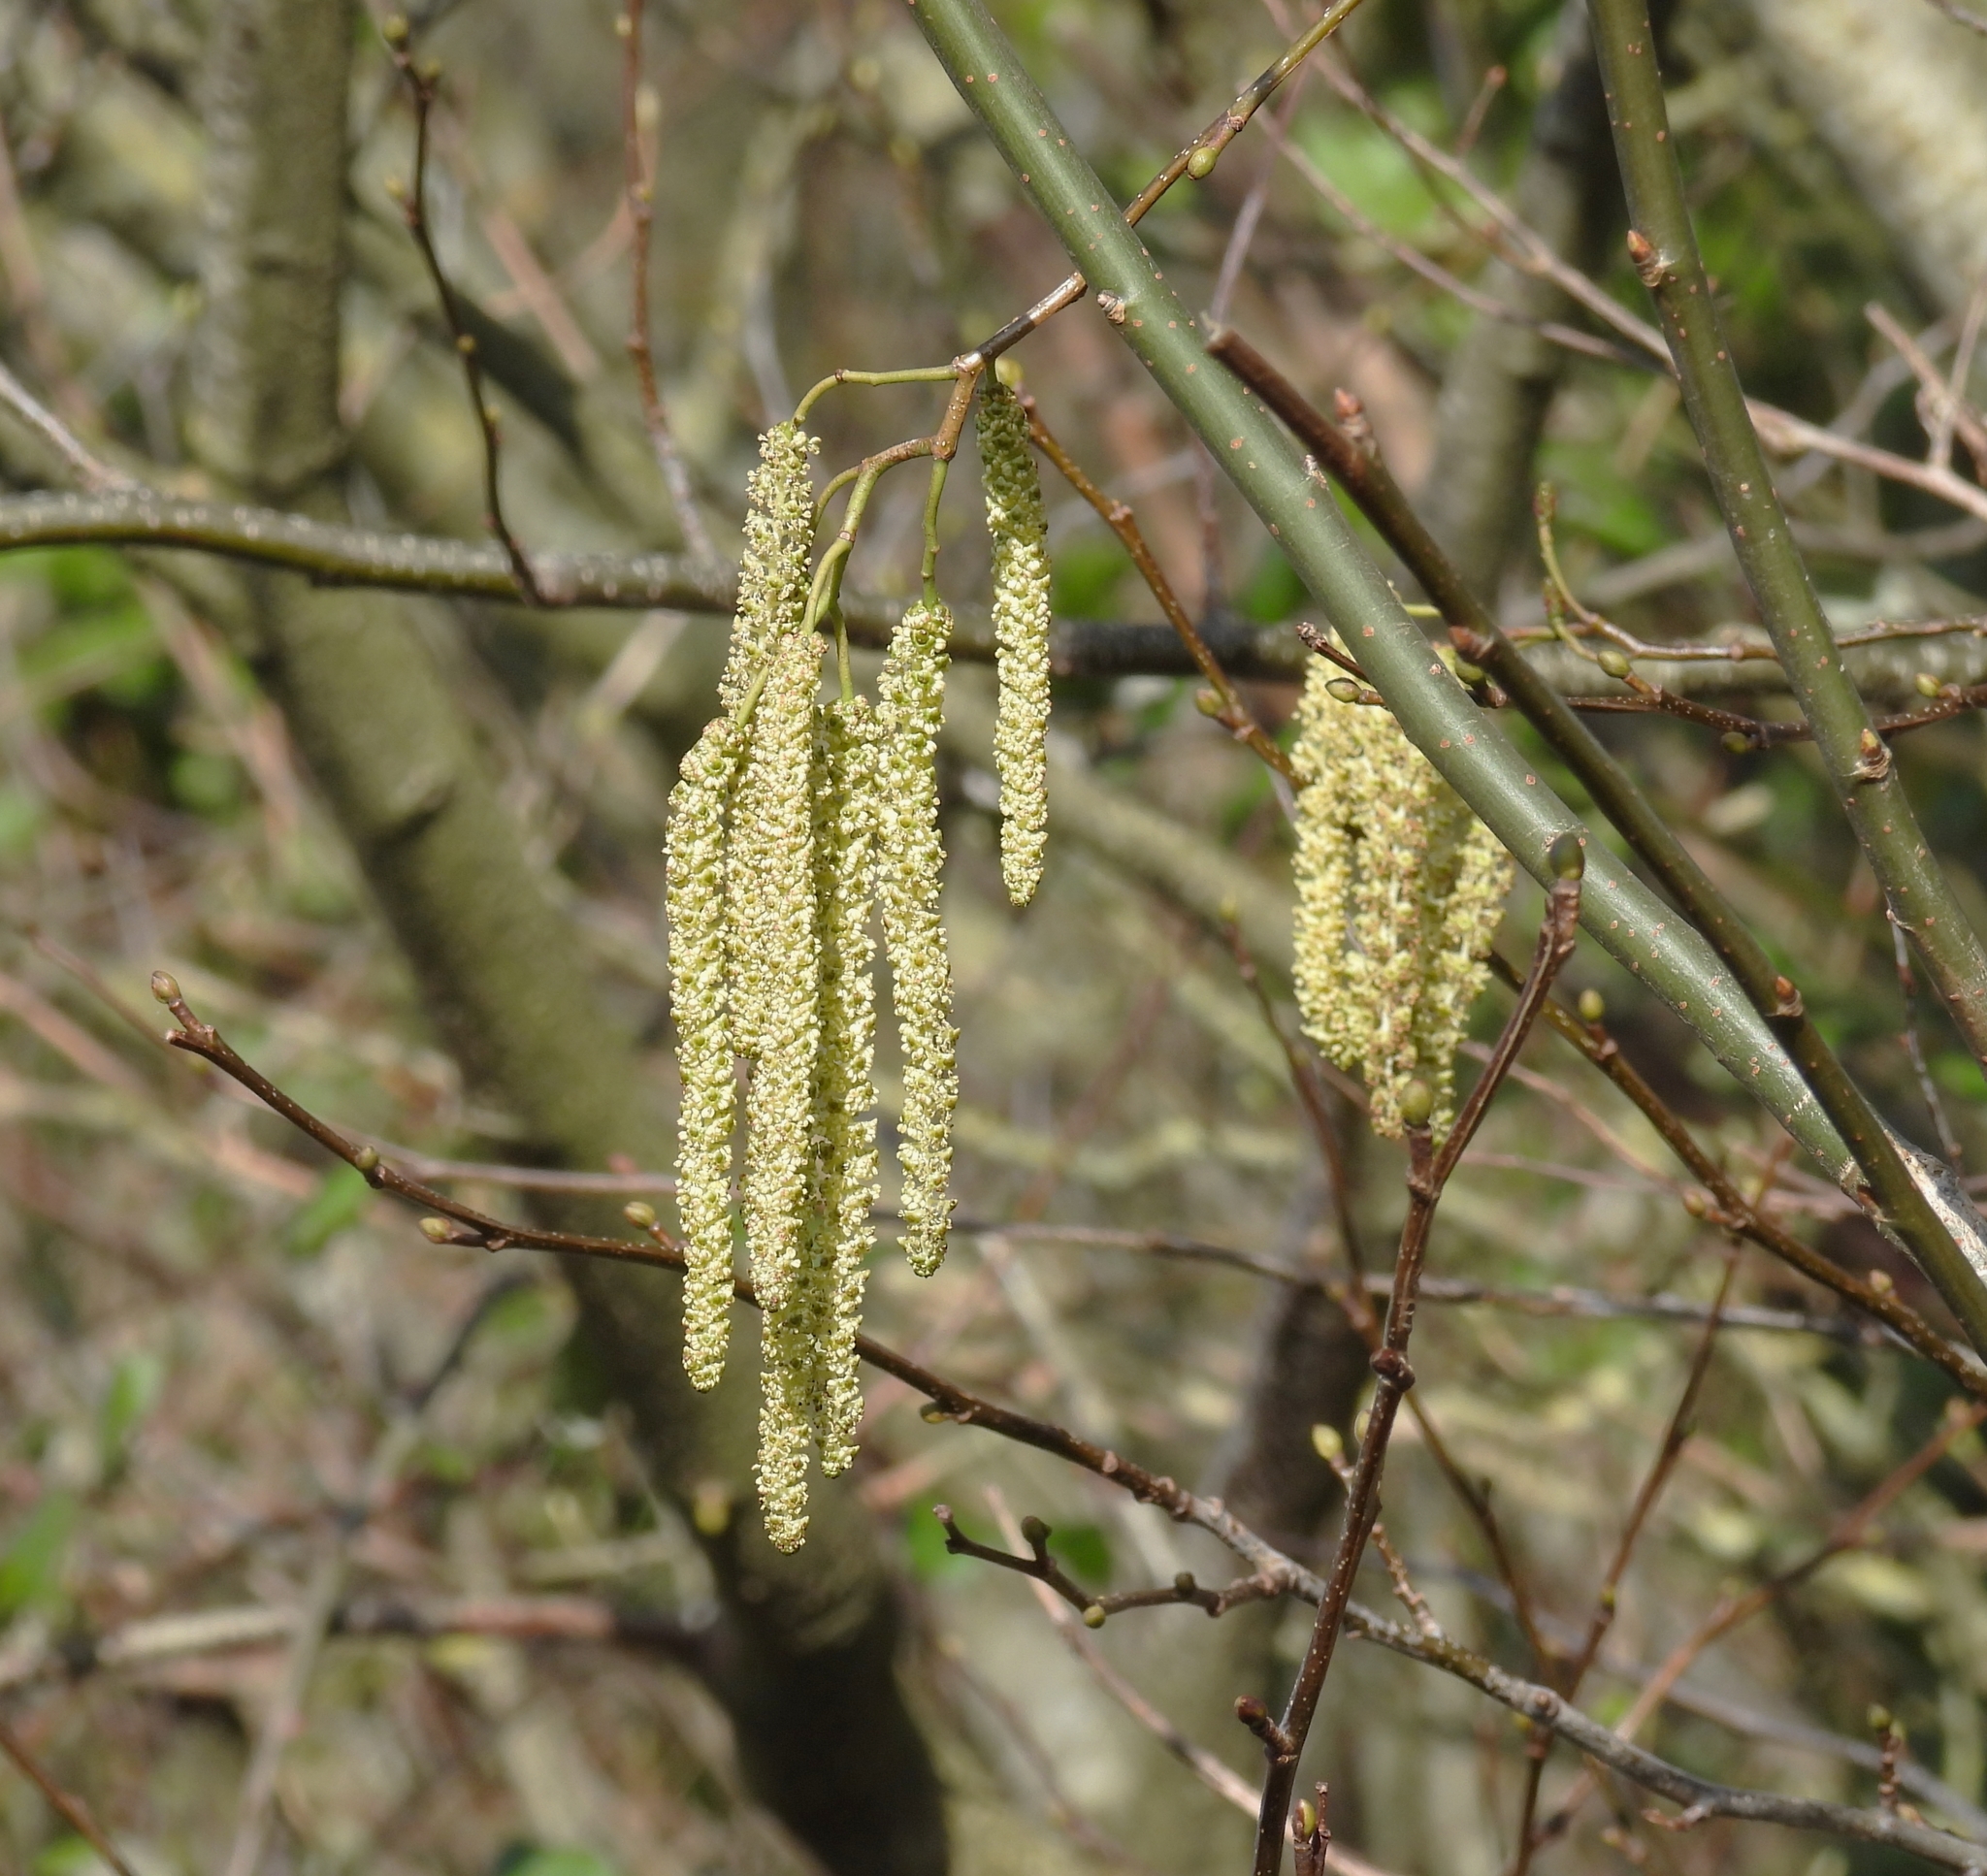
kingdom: Plantae
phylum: Tracheophyta
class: Magnoliopsida
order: Fagales
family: Betulaceae
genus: Corylus
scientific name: Corylus avellana
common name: European hazel
